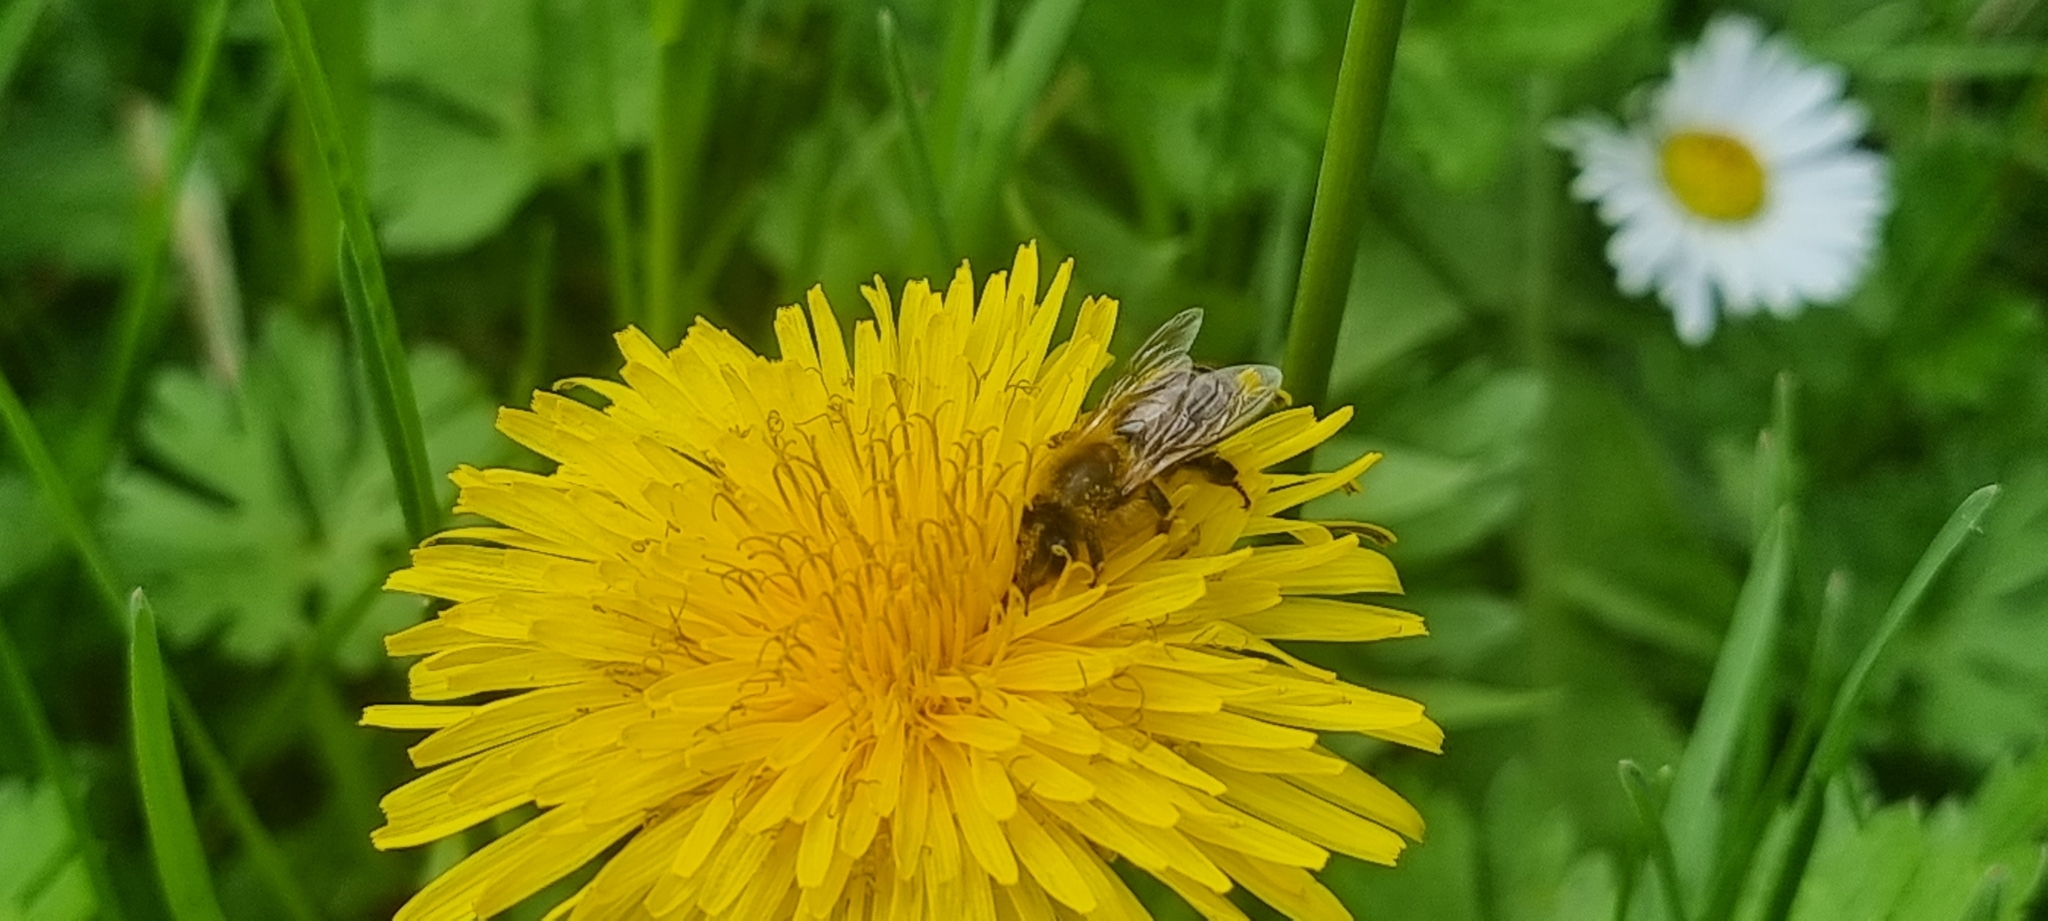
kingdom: Animalia
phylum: Arthropoda
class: Insecta
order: Hymenoptera
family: Apidae
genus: Apis
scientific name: Apis mellifera
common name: Honey bee
